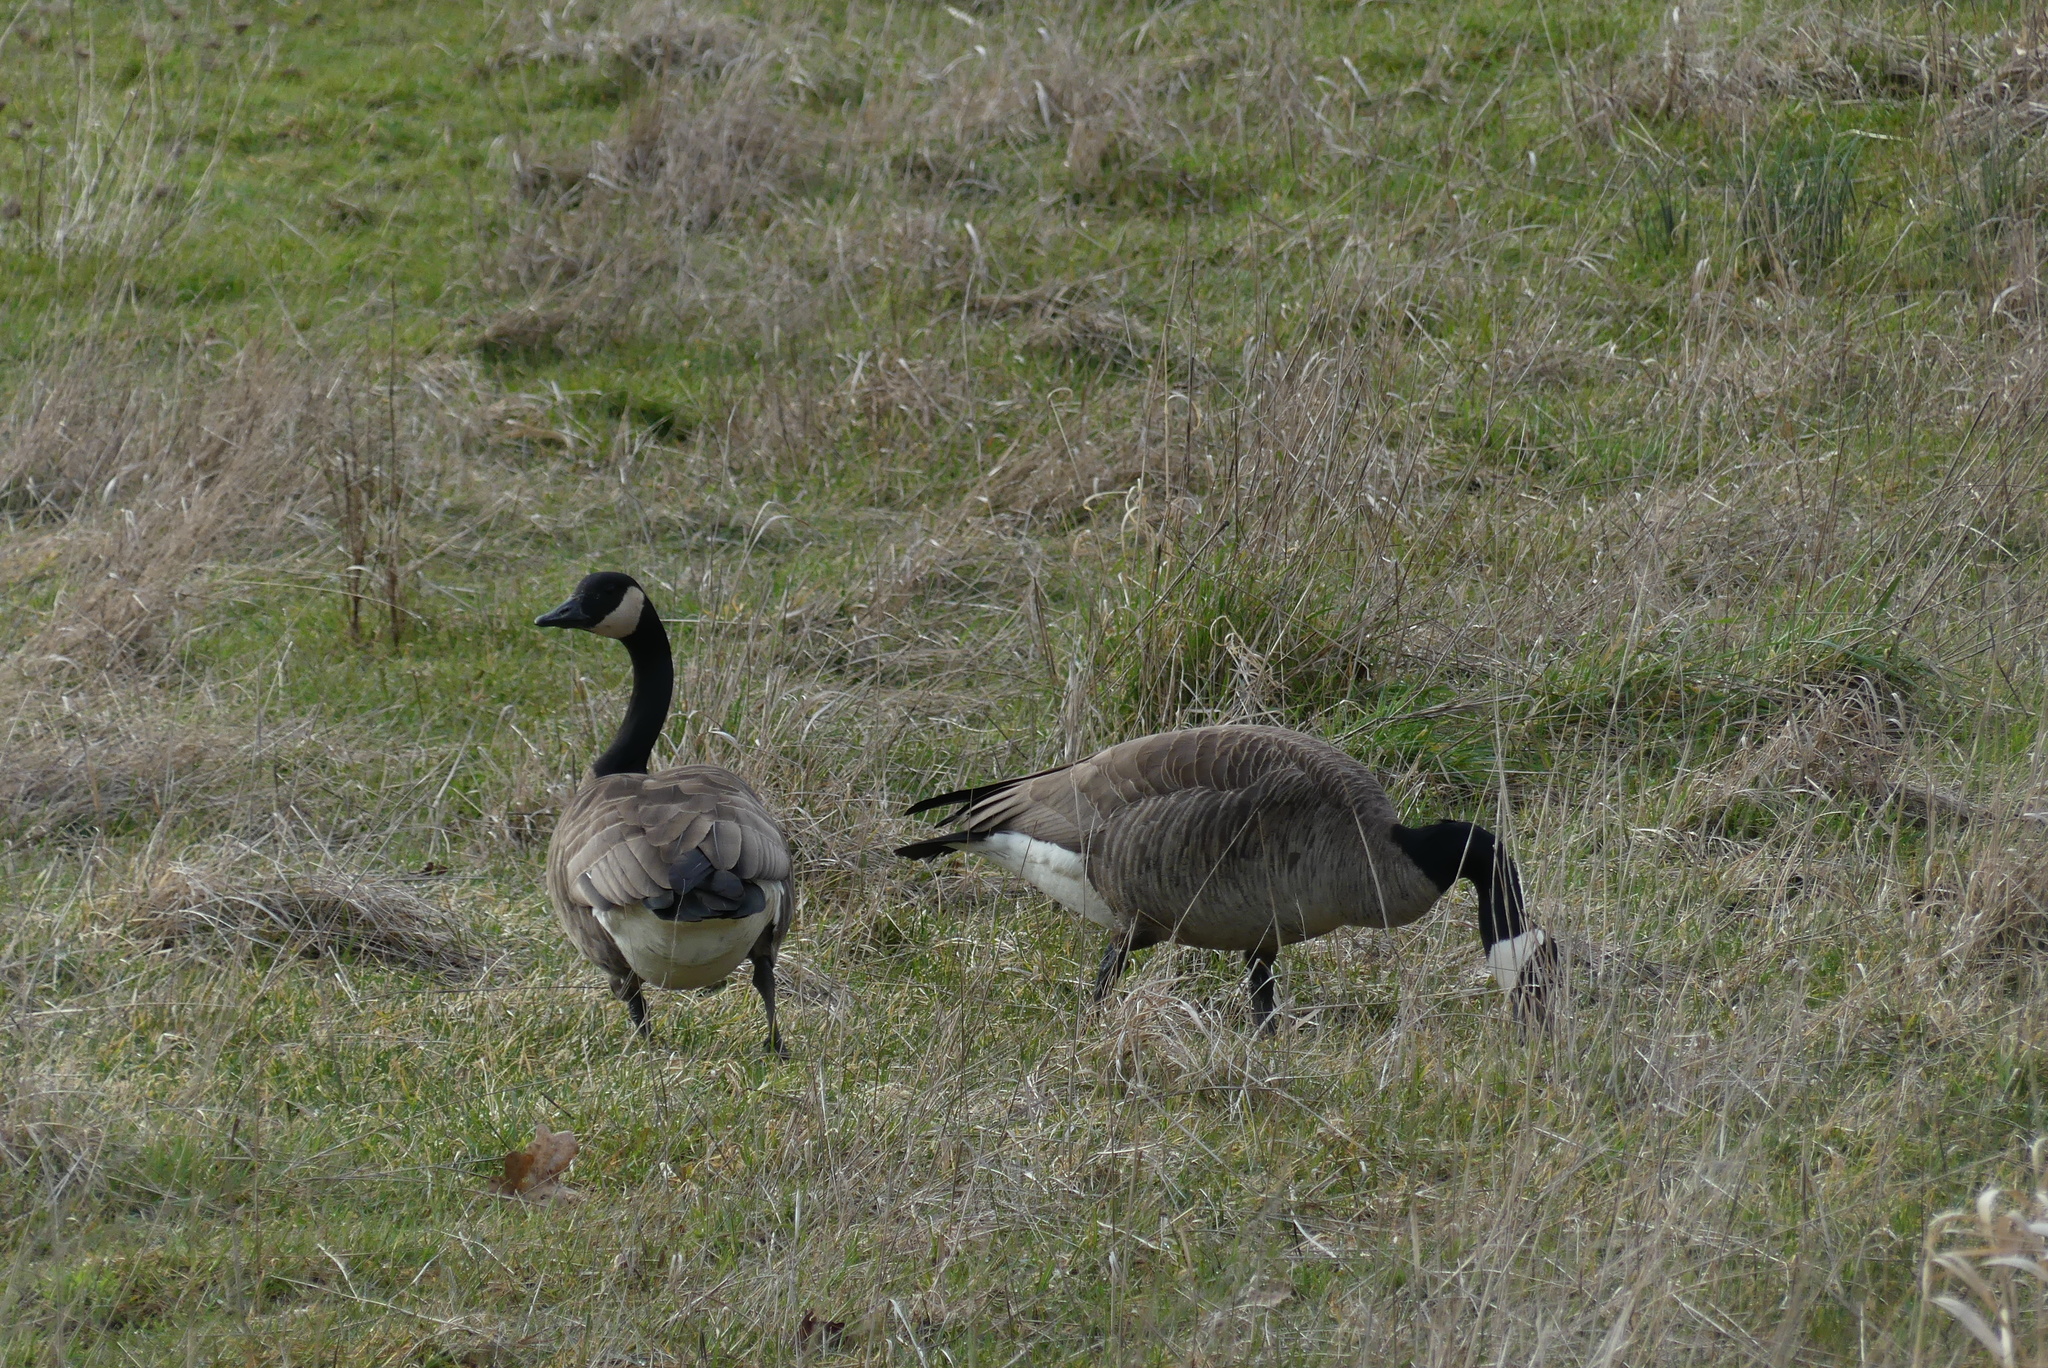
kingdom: Animalia
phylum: Chordata
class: Aves
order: Anseriformes
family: Anatidae
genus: Branta
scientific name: Branta canadensis
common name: Canada goose
